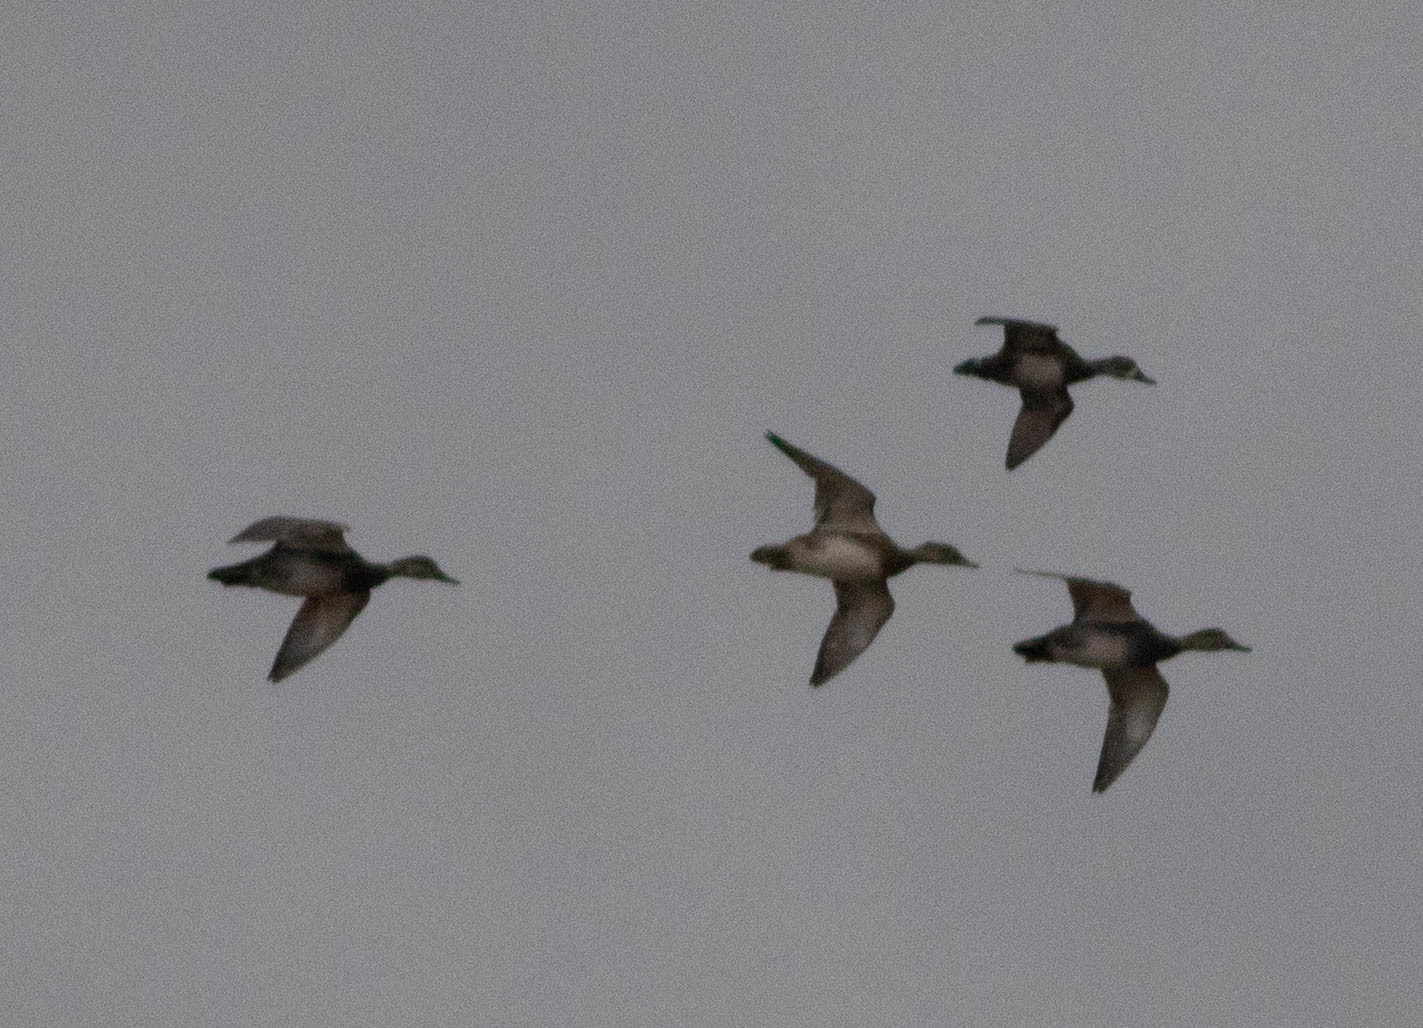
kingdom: Animalia
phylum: Chordata
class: Aves
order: Anseriformes
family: Anatidae
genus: Mareca
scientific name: Mareca strepera
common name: Gadwall
